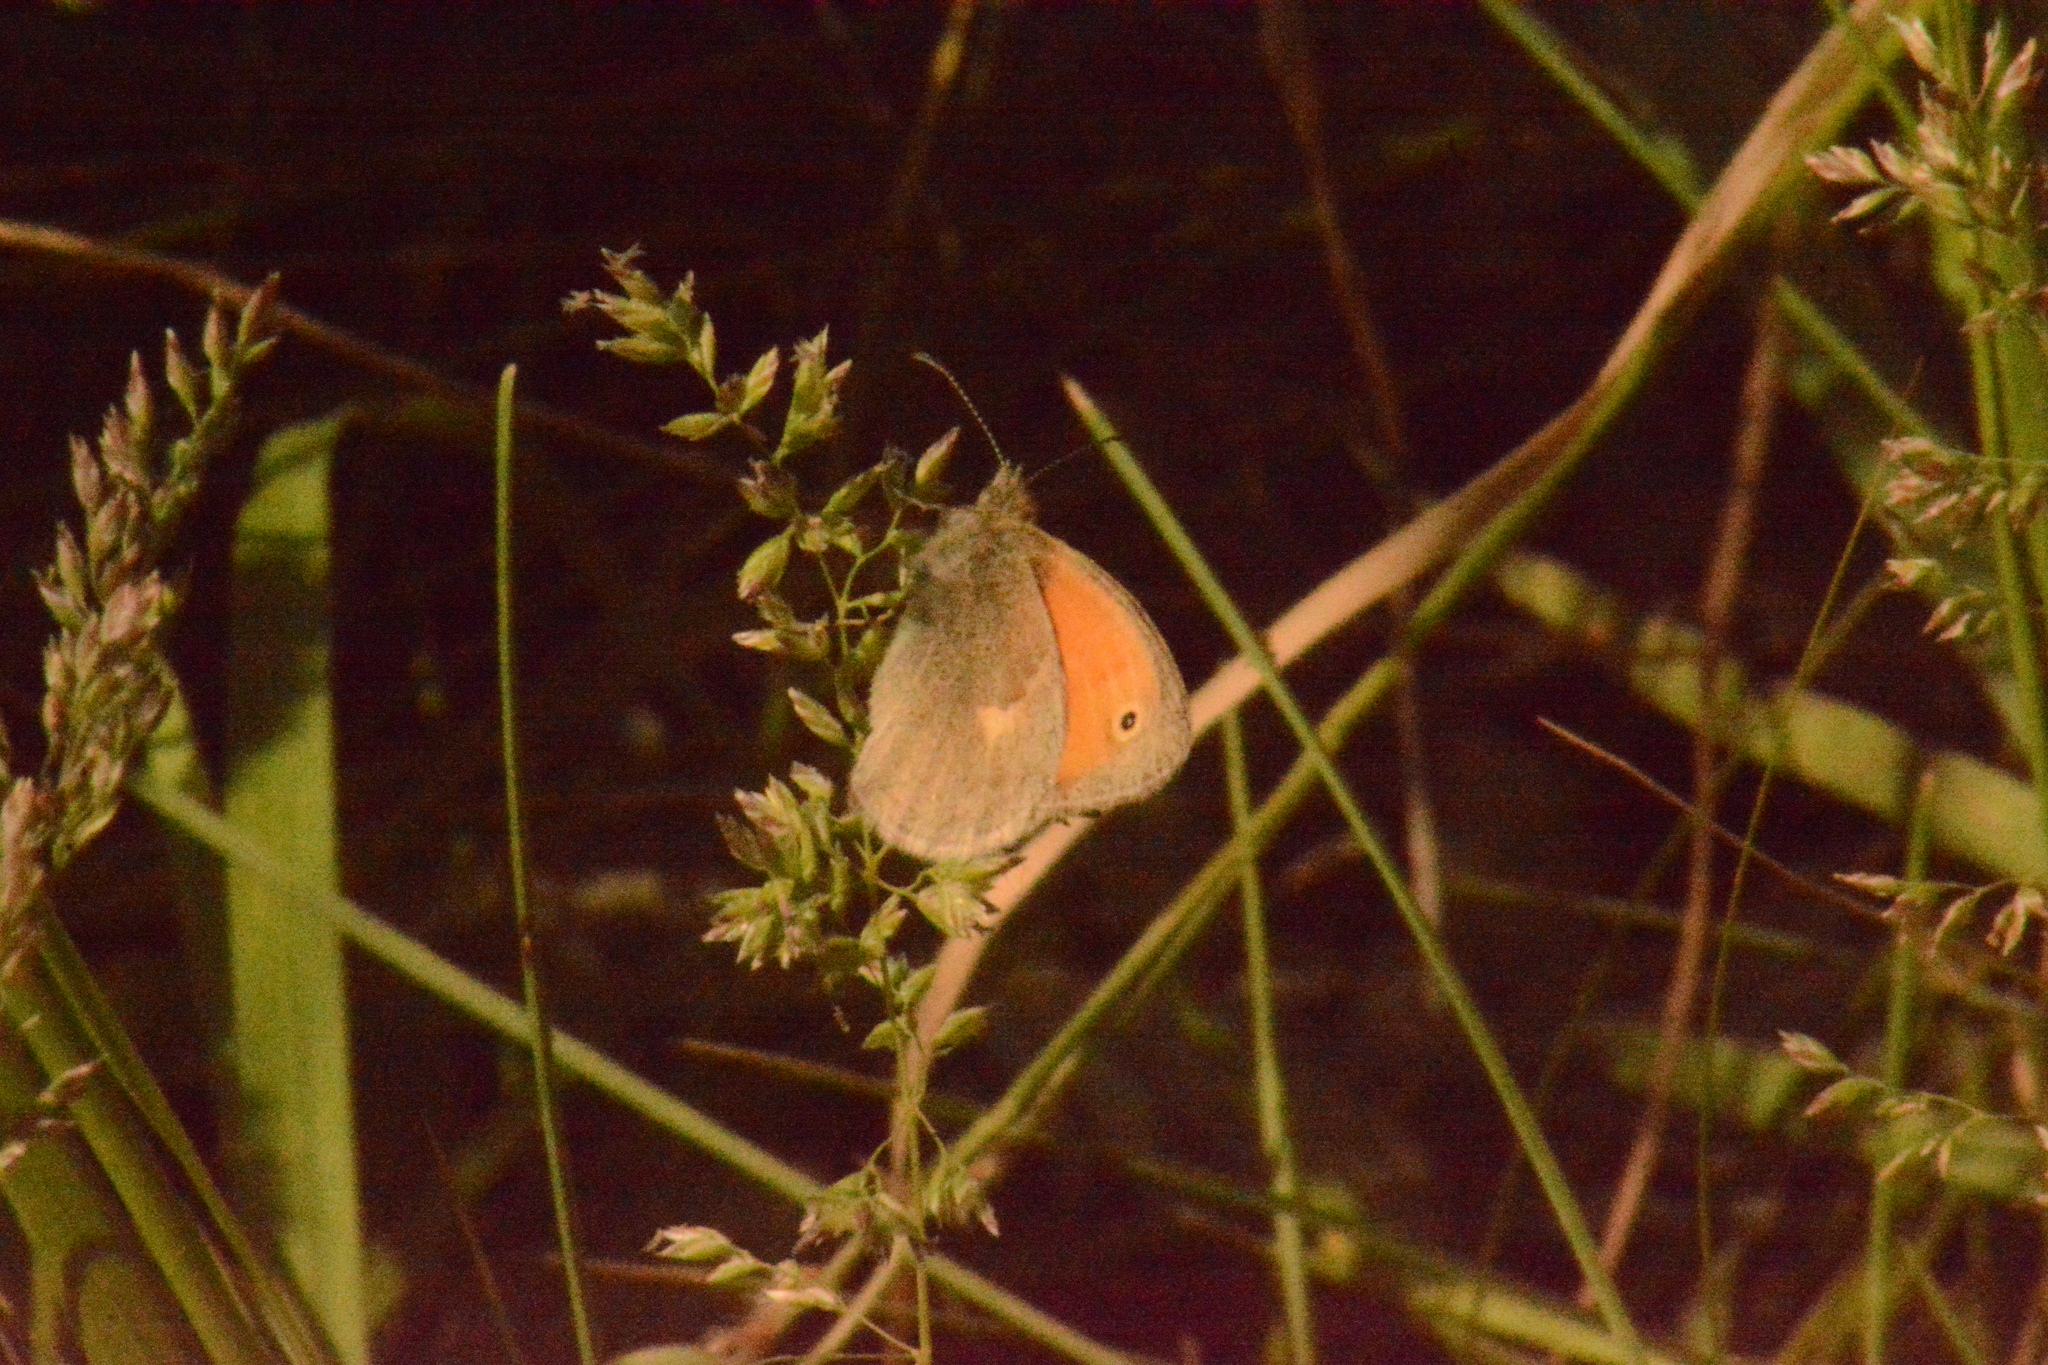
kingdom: Animalia
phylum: Arthropoda
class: Insecta
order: Lepidoptera
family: Nymphalidae
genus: Coenonympha
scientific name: Coenonympha pamphilus
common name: Small heath
